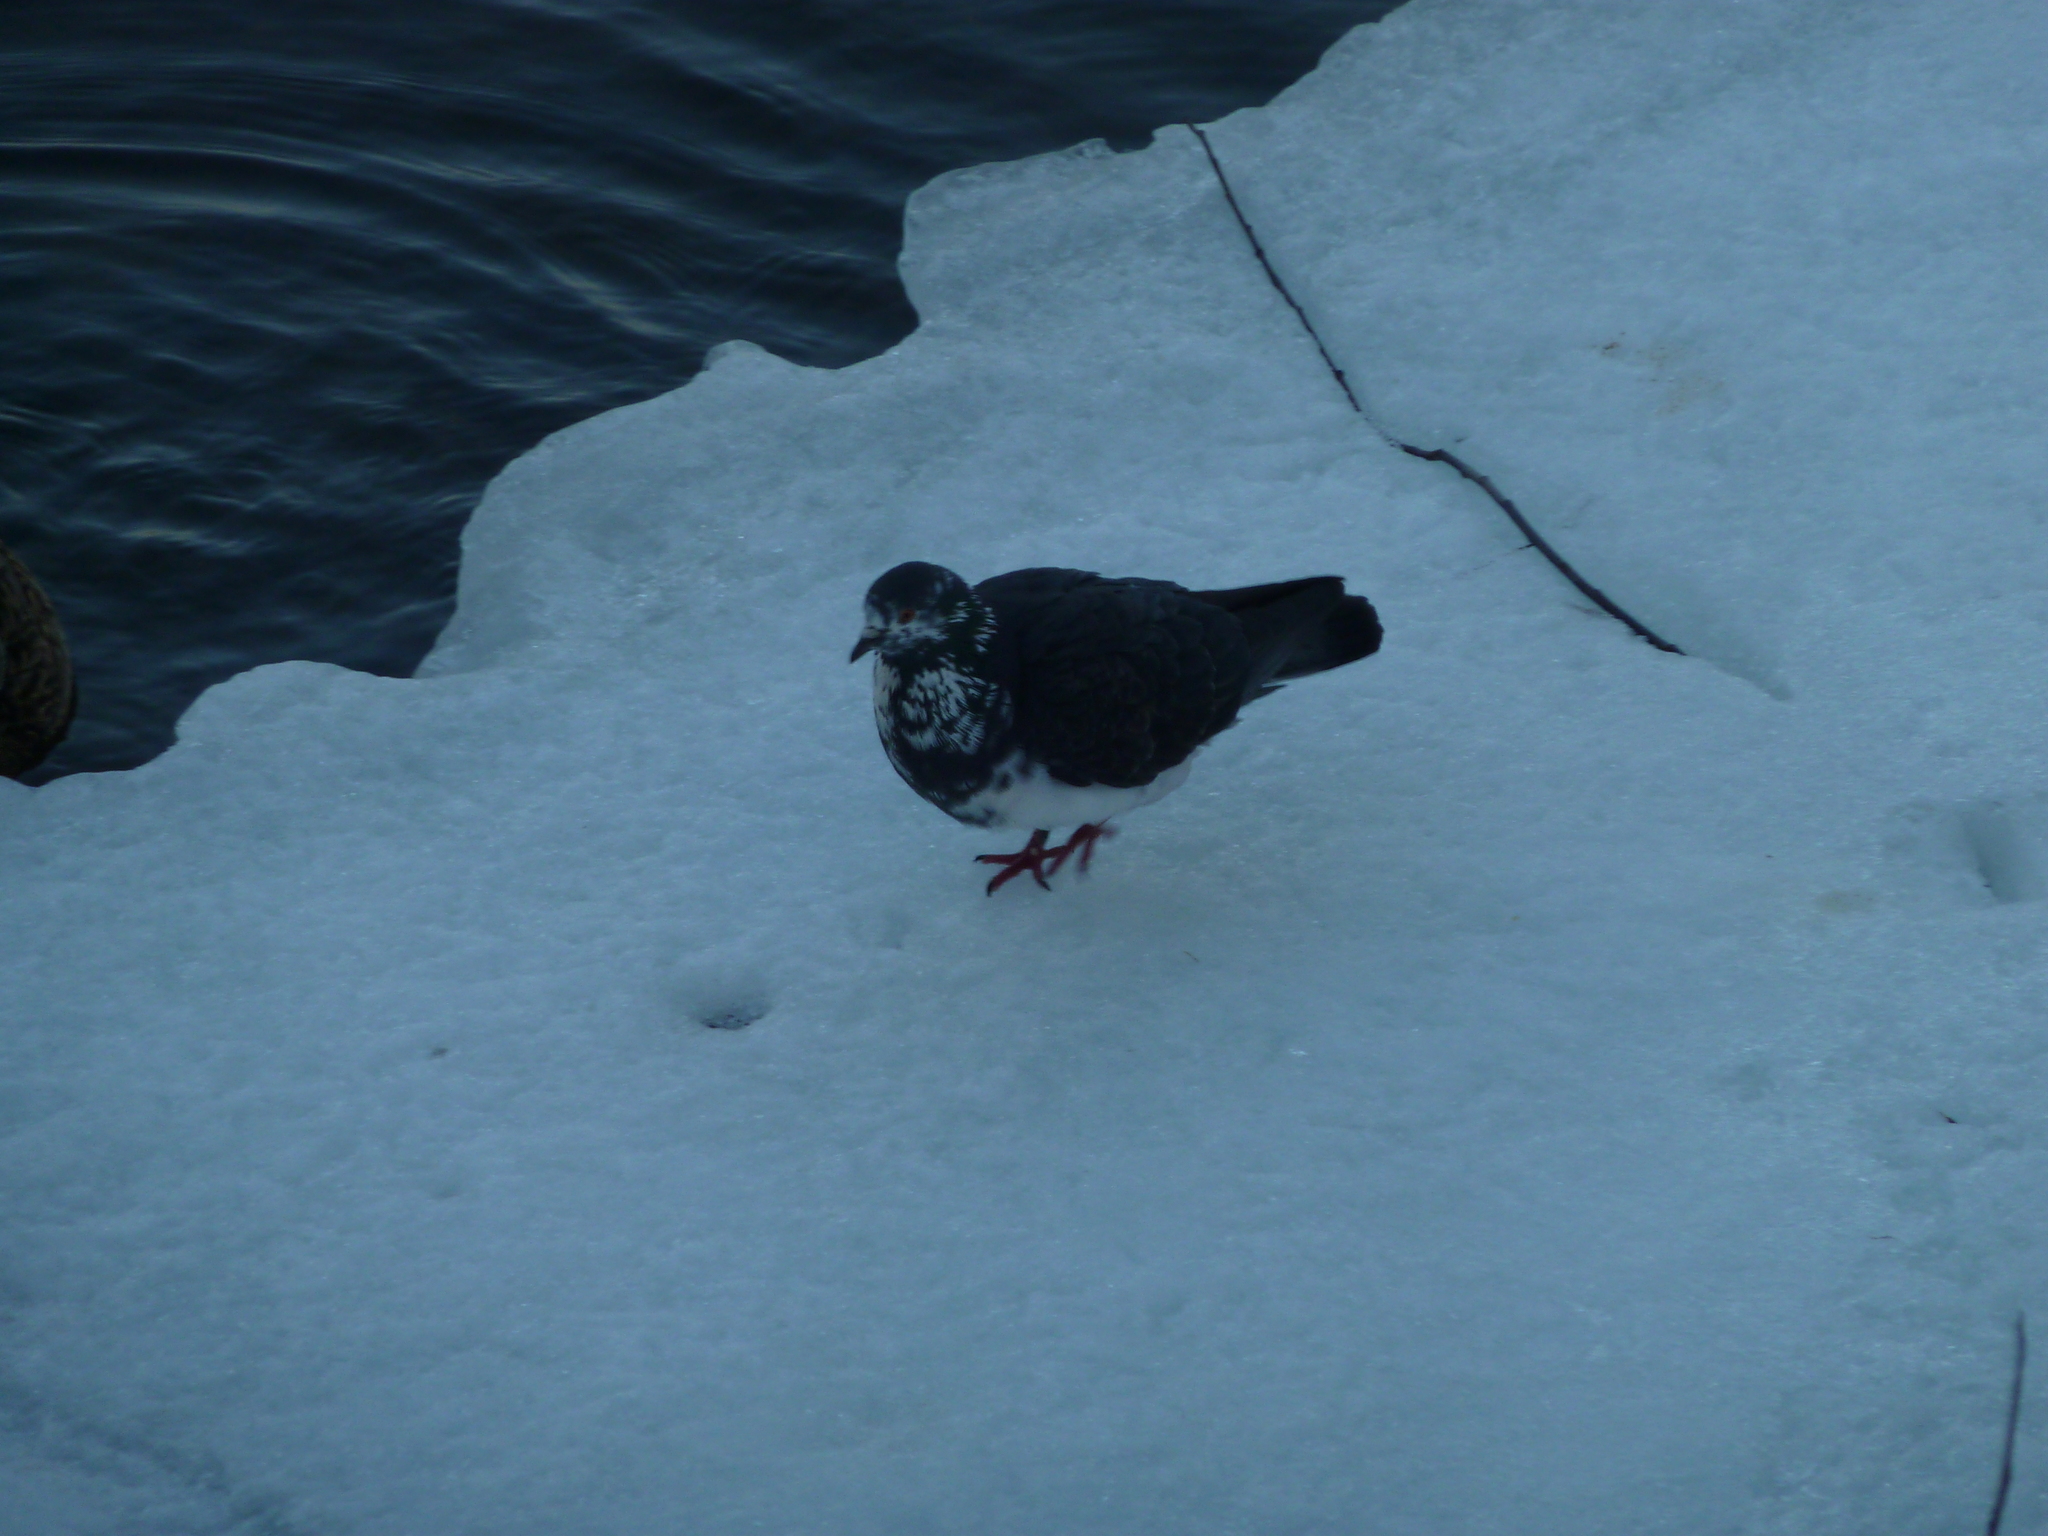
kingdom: Animalia
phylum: Chordata
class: Aves
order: Columbiformes
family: Columbidae
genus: Columba
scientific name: Columba livia
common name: Rock pigeon
